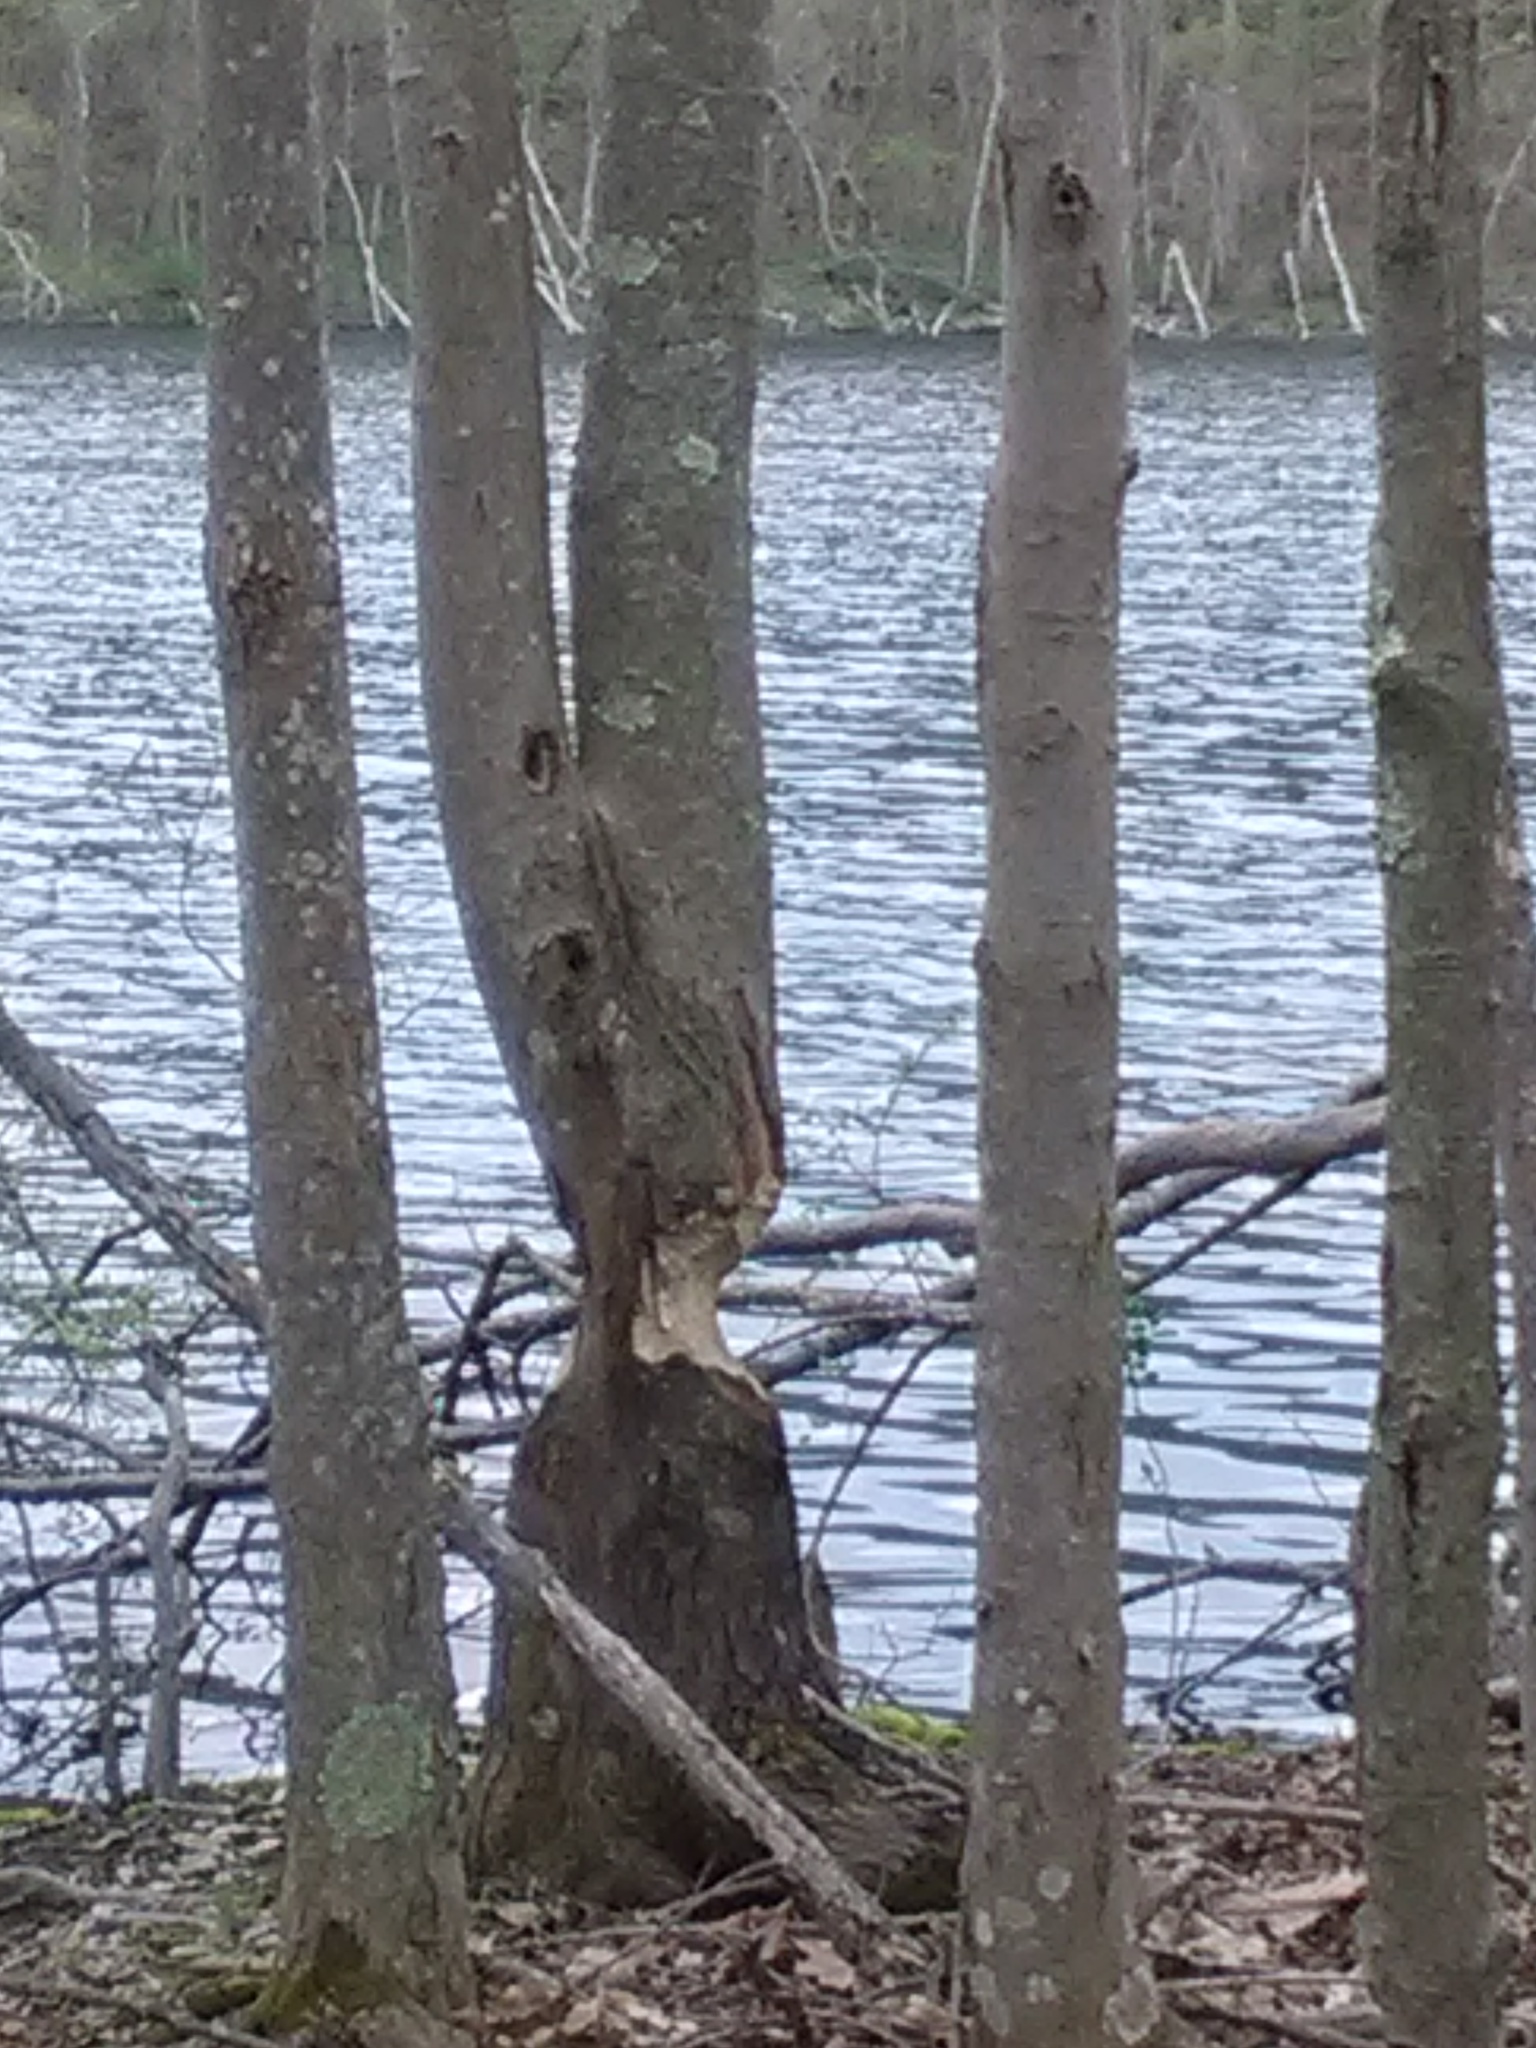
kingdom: Animalia
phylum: Chordata
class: Mammalia
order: Rodentia
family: Castoridae
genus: Castor
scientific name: Castor canadensis
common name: American beaver
